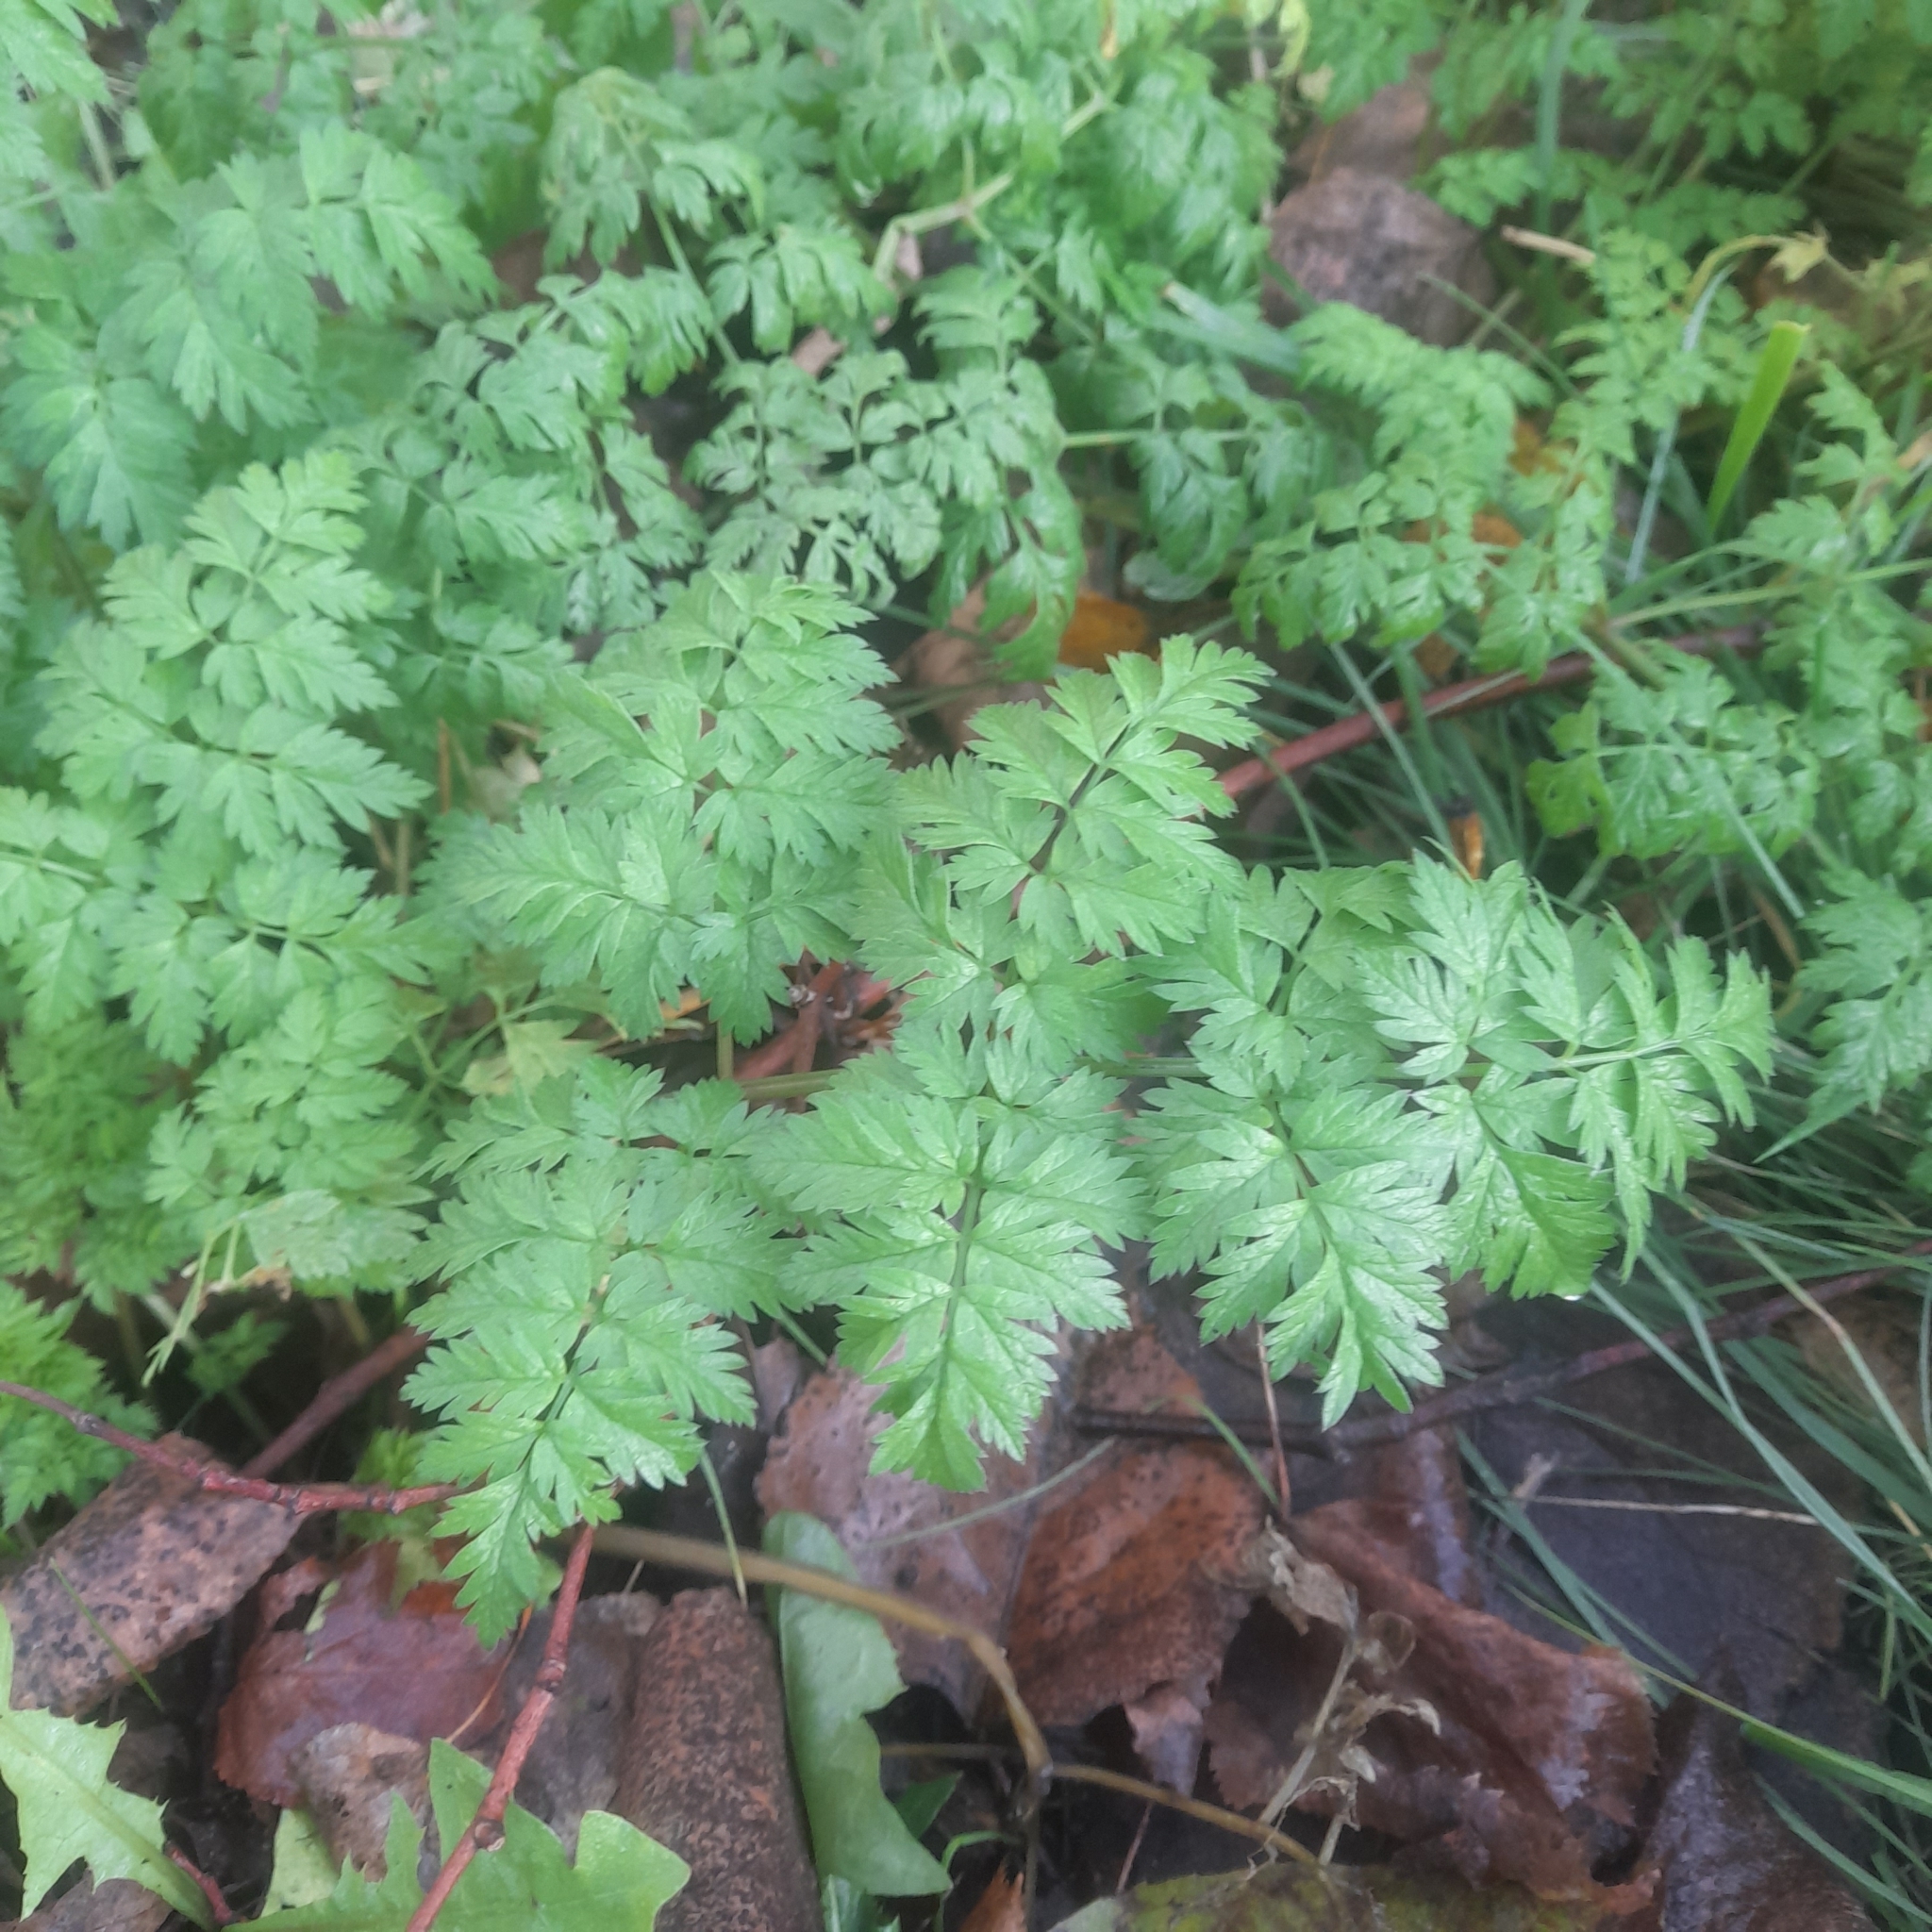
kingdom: Plantae
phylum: Tracheophyta
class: Magnoliopsida
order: Apiales
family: Apiaceae
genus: Anthriscus
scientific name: Anthriscus sylvestris
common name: Cow parsley
